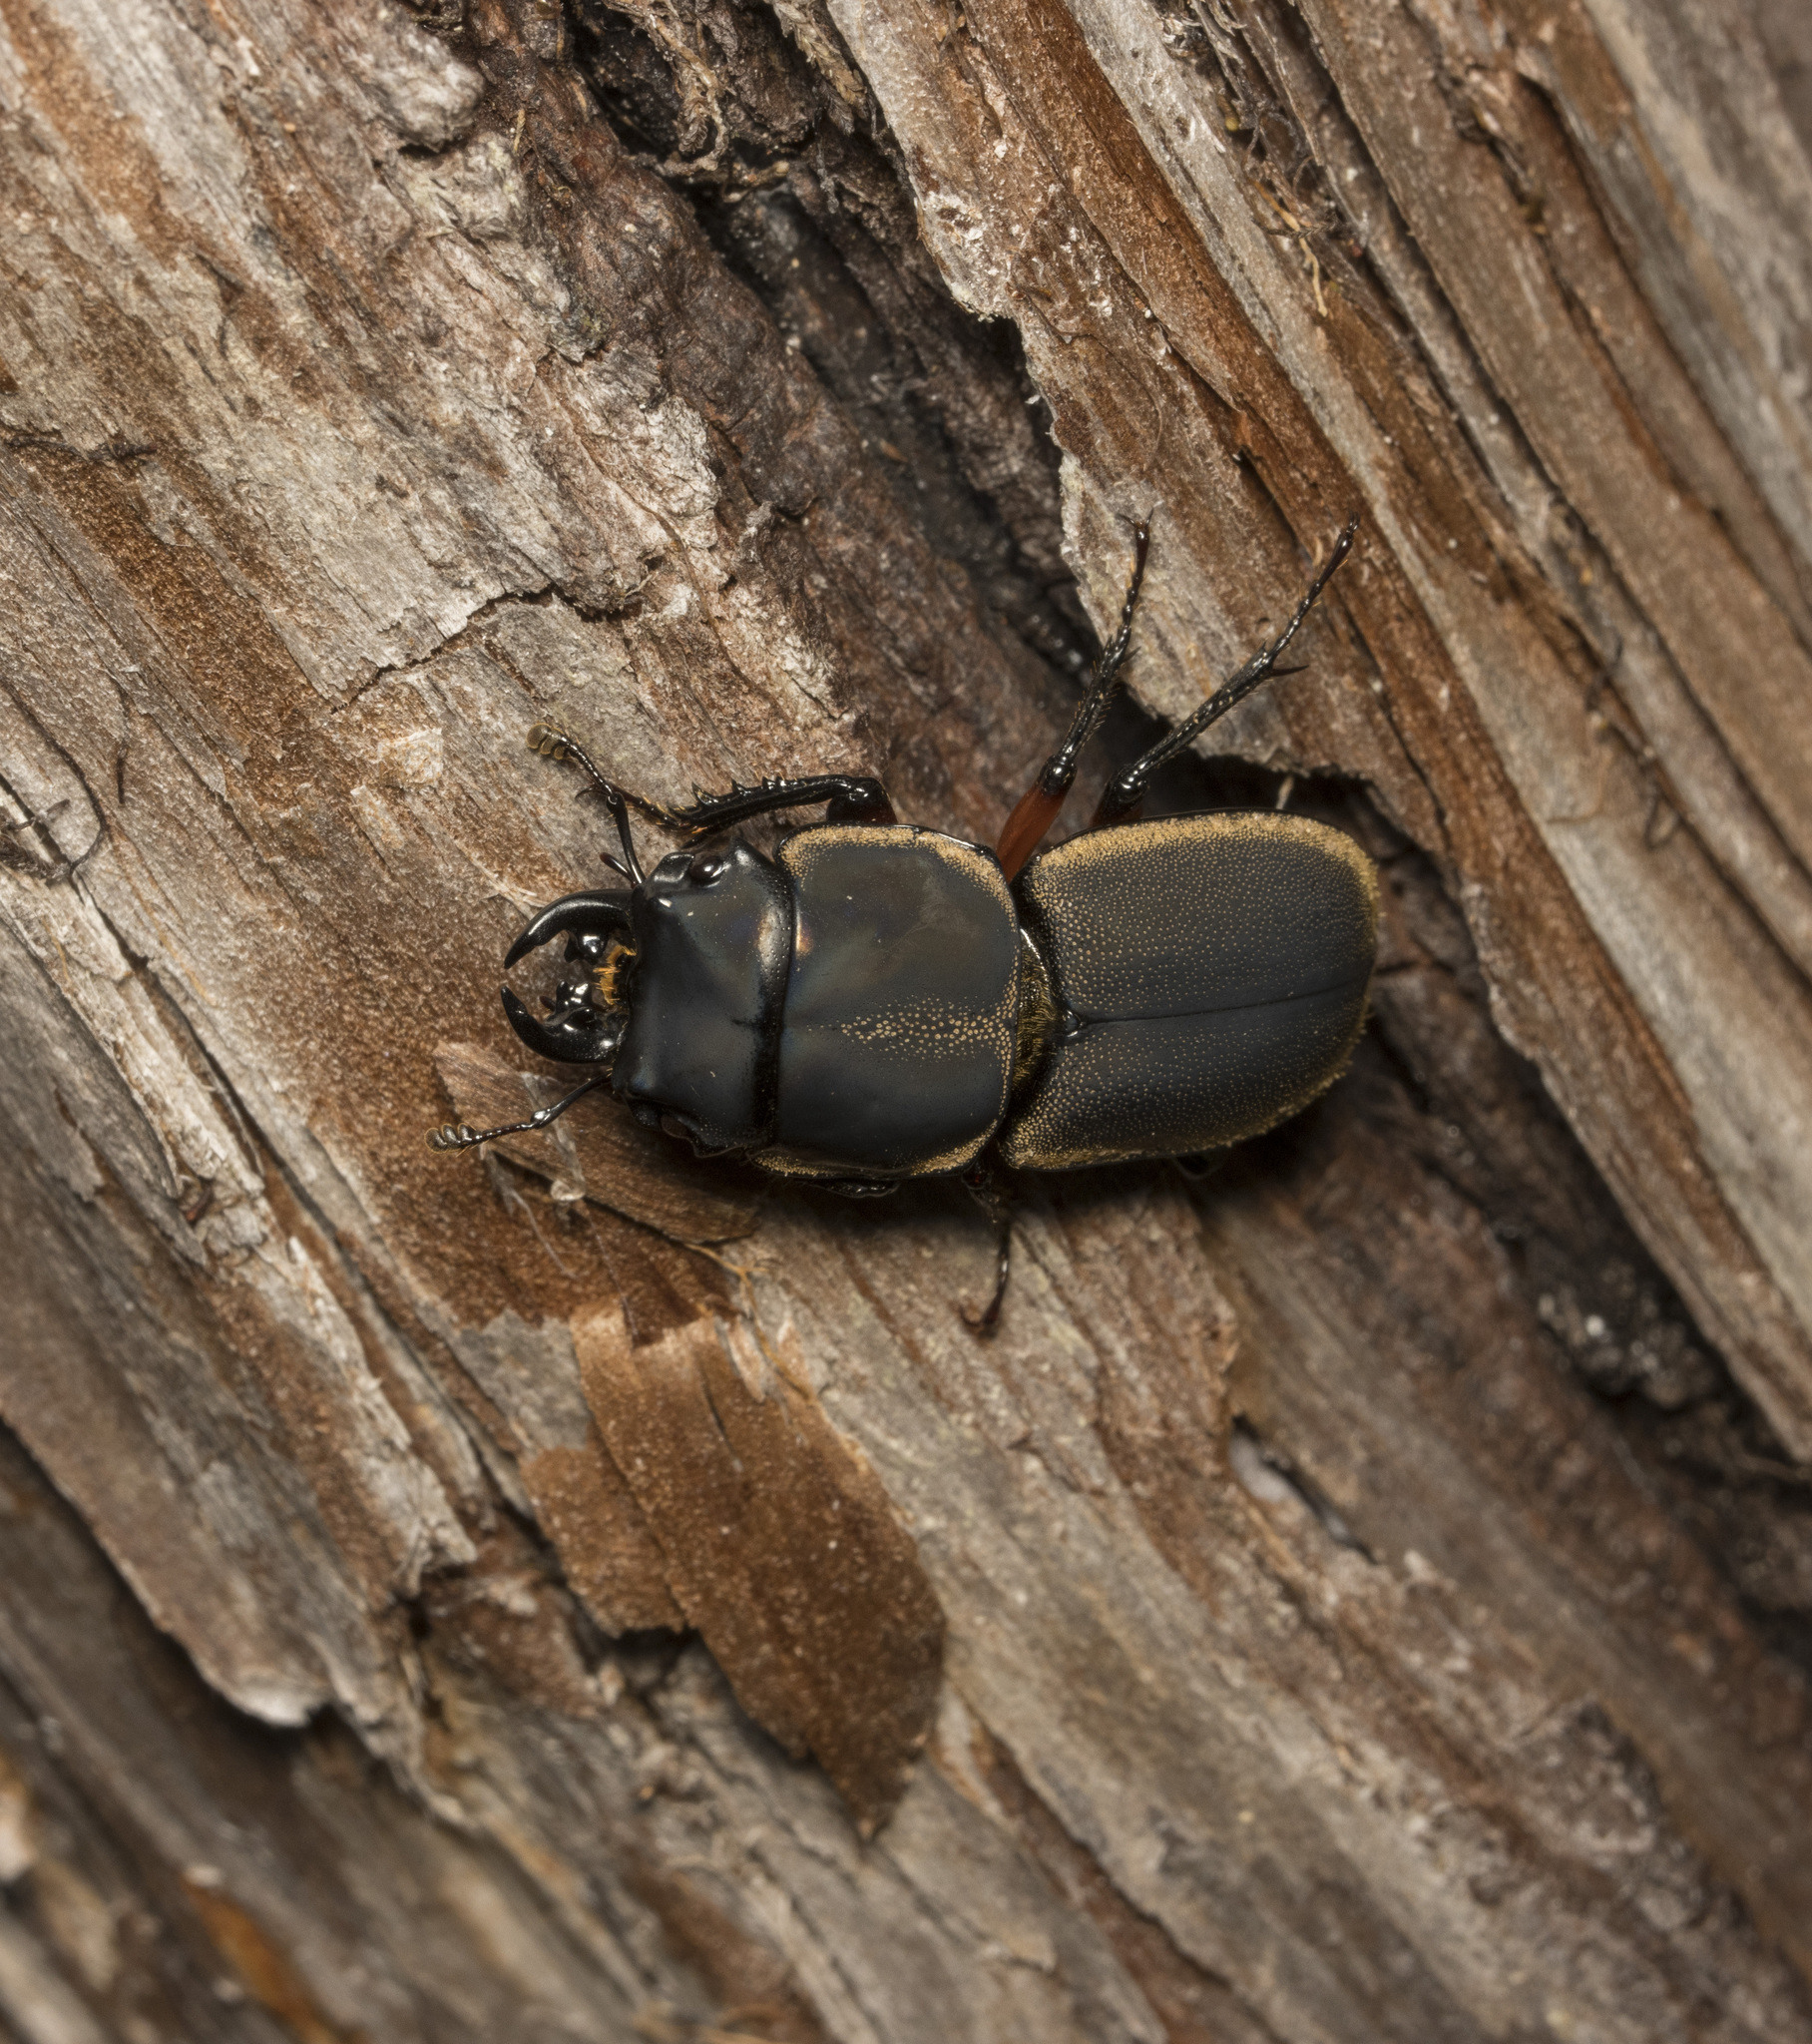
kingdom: Animalia
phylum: Arthropoda
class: Insecta
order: Coleoptera
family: Lucanidae
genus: Erichius
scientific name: Erichius femoralis
